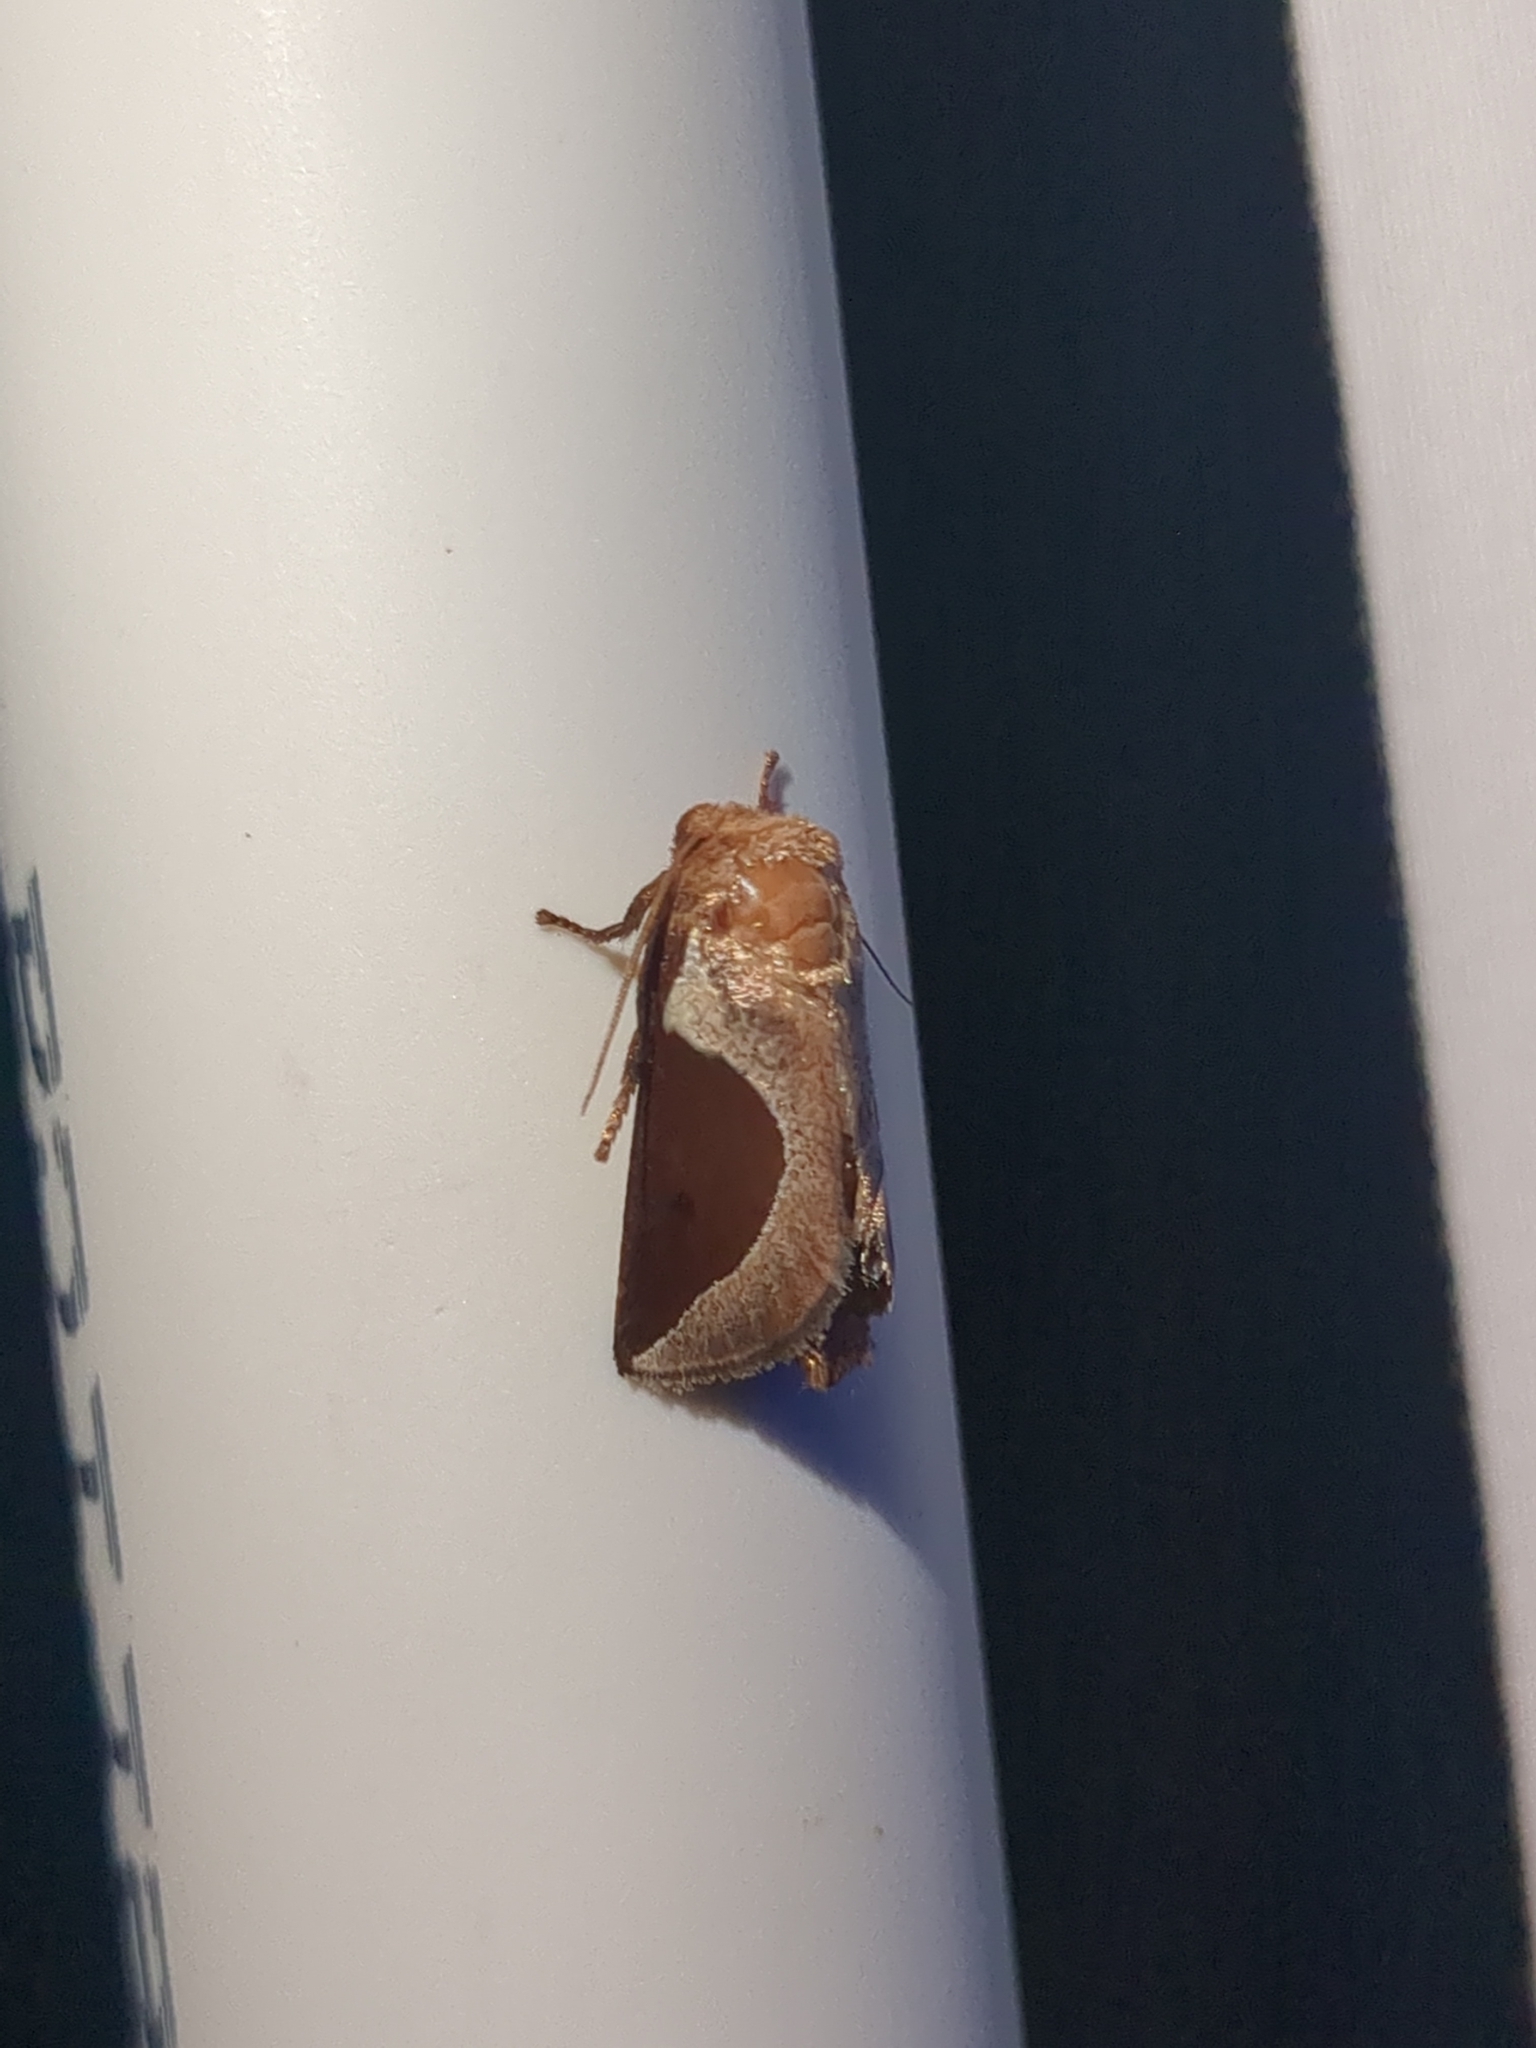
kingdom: Animalia
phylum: Arthropoda
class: Insecta
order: Lepidoptera
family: Limacodidae
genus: Prolimacodes
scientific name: Prolimacodes badia
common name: Skiff moth
